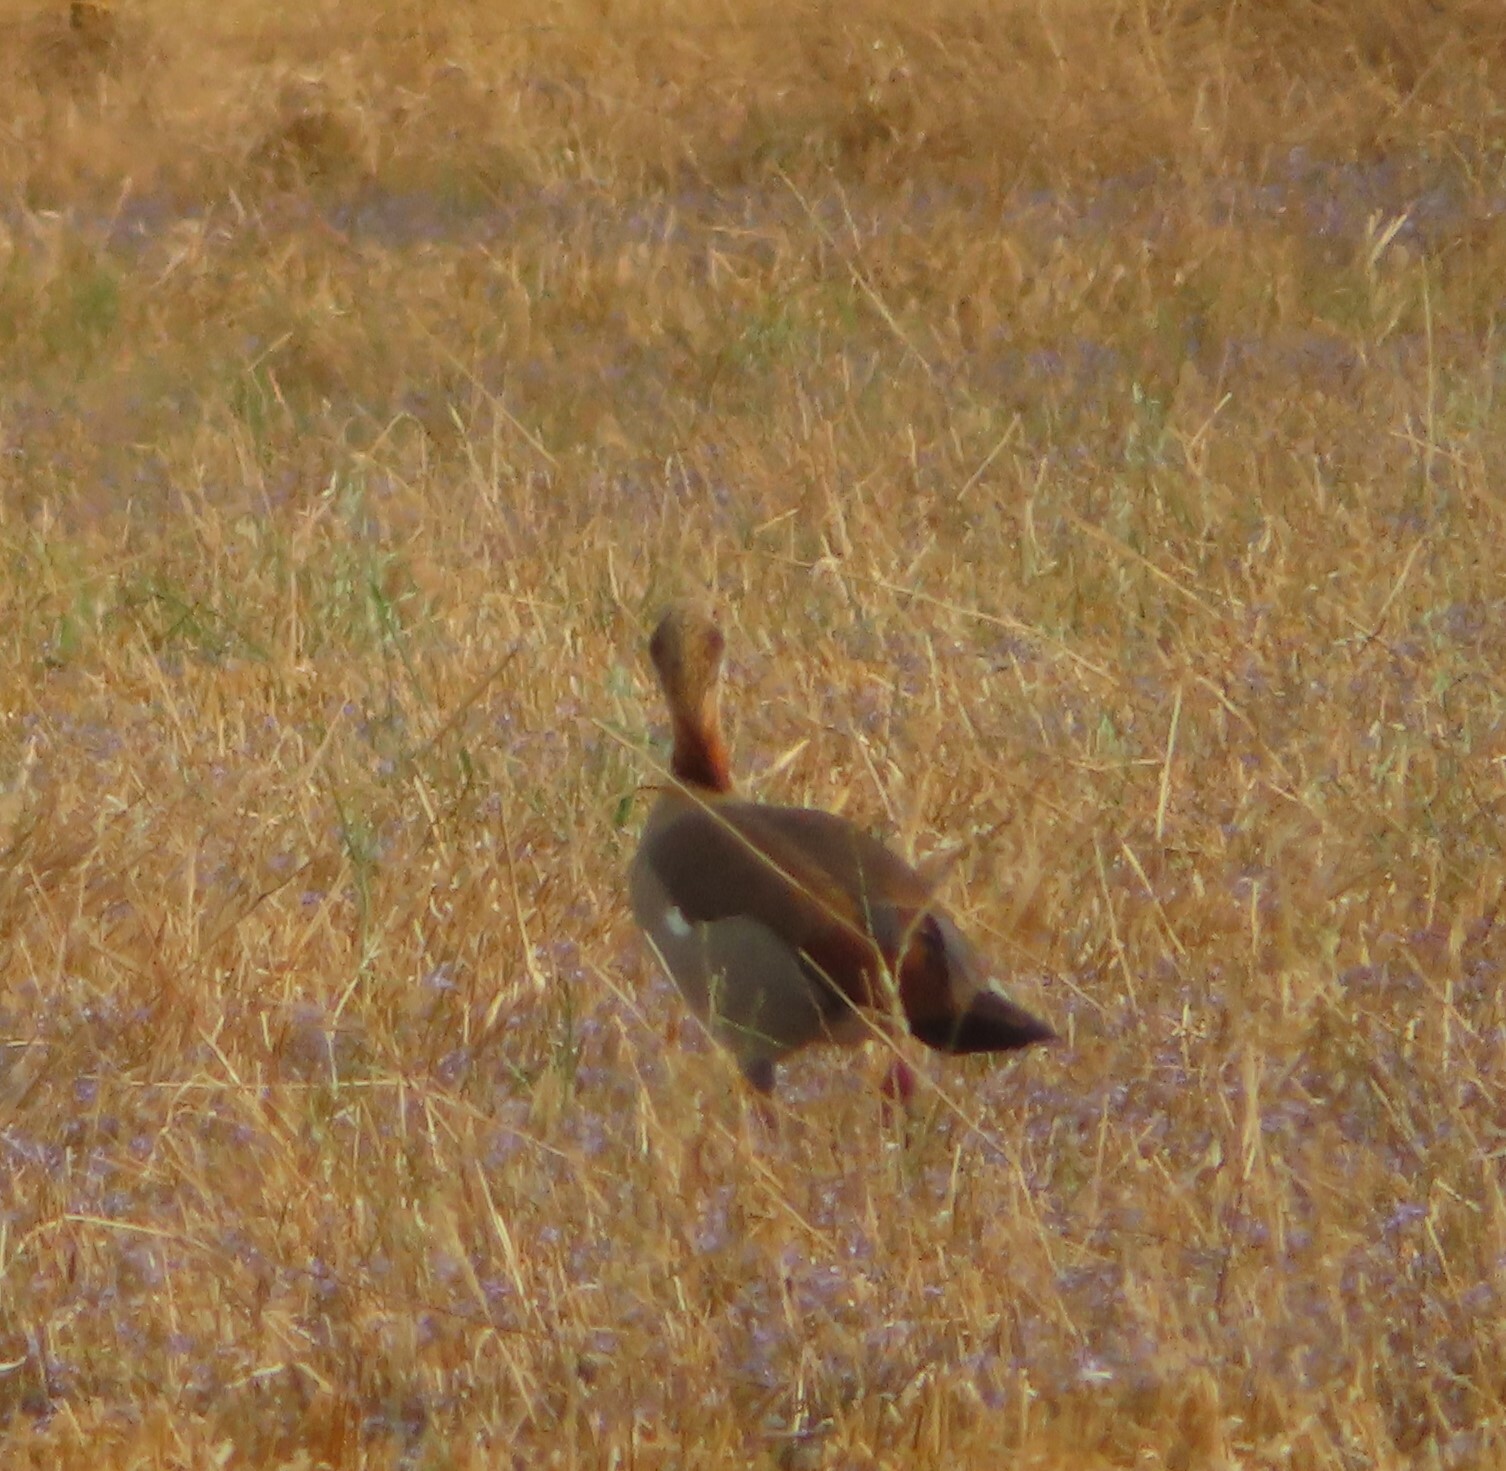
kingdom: Animalia
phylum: Chordata
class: Aves
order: Anseriformes
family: Anatidae
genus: Alopochen
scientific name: Alopochen aegyptiaca
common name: Egyptian goose
